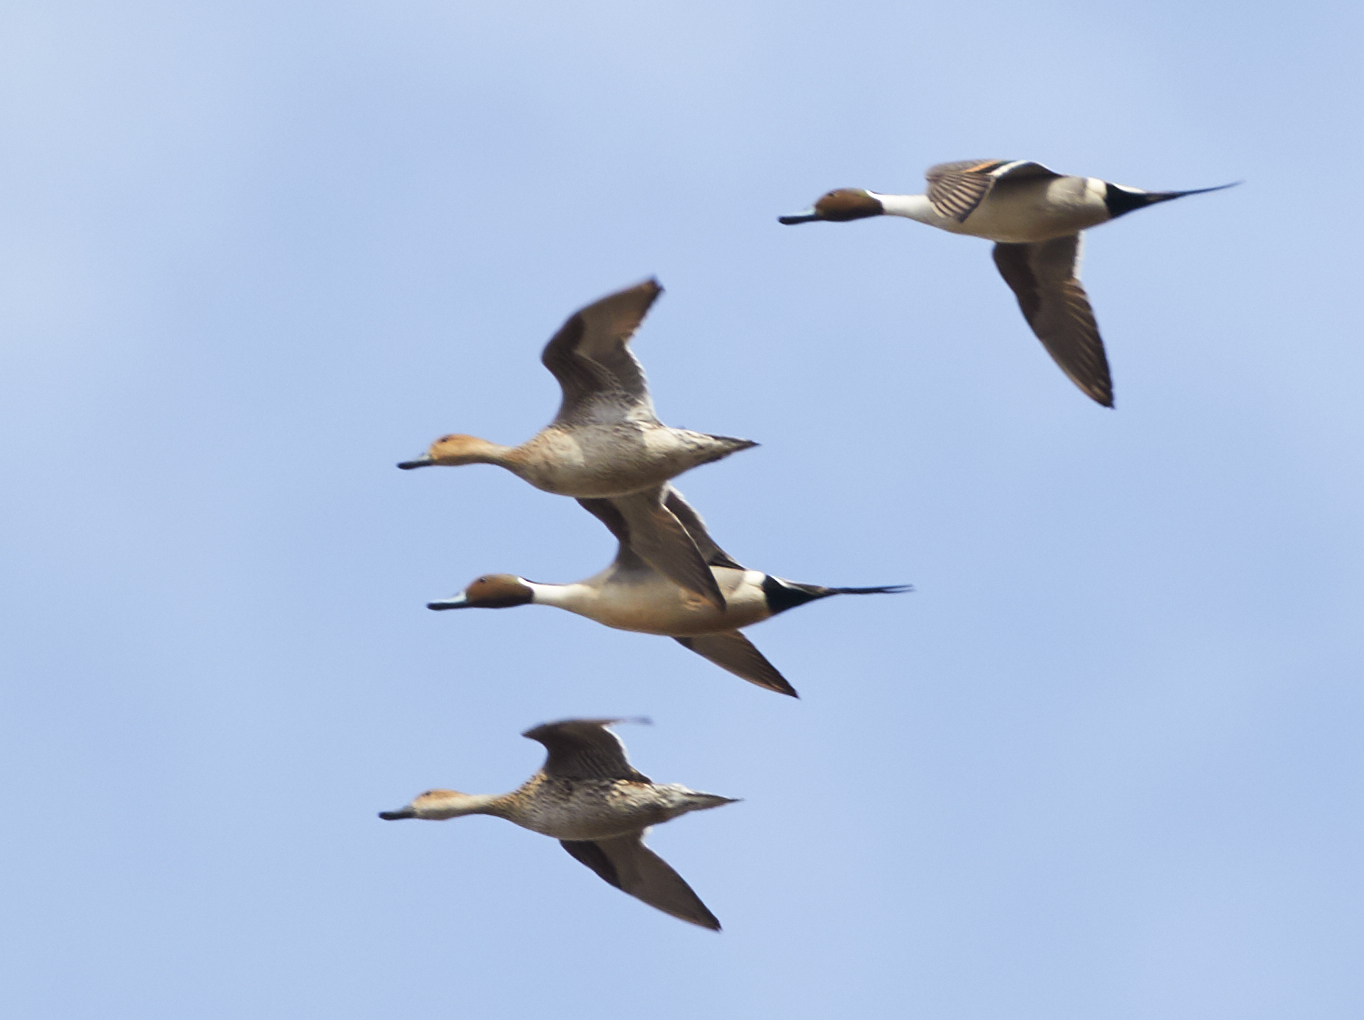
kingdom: Animalia
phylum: Chordata
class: Aves
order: Anseriformes
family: Anatidae
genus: Anas
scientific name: Anas acuta
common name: Northern pintail
